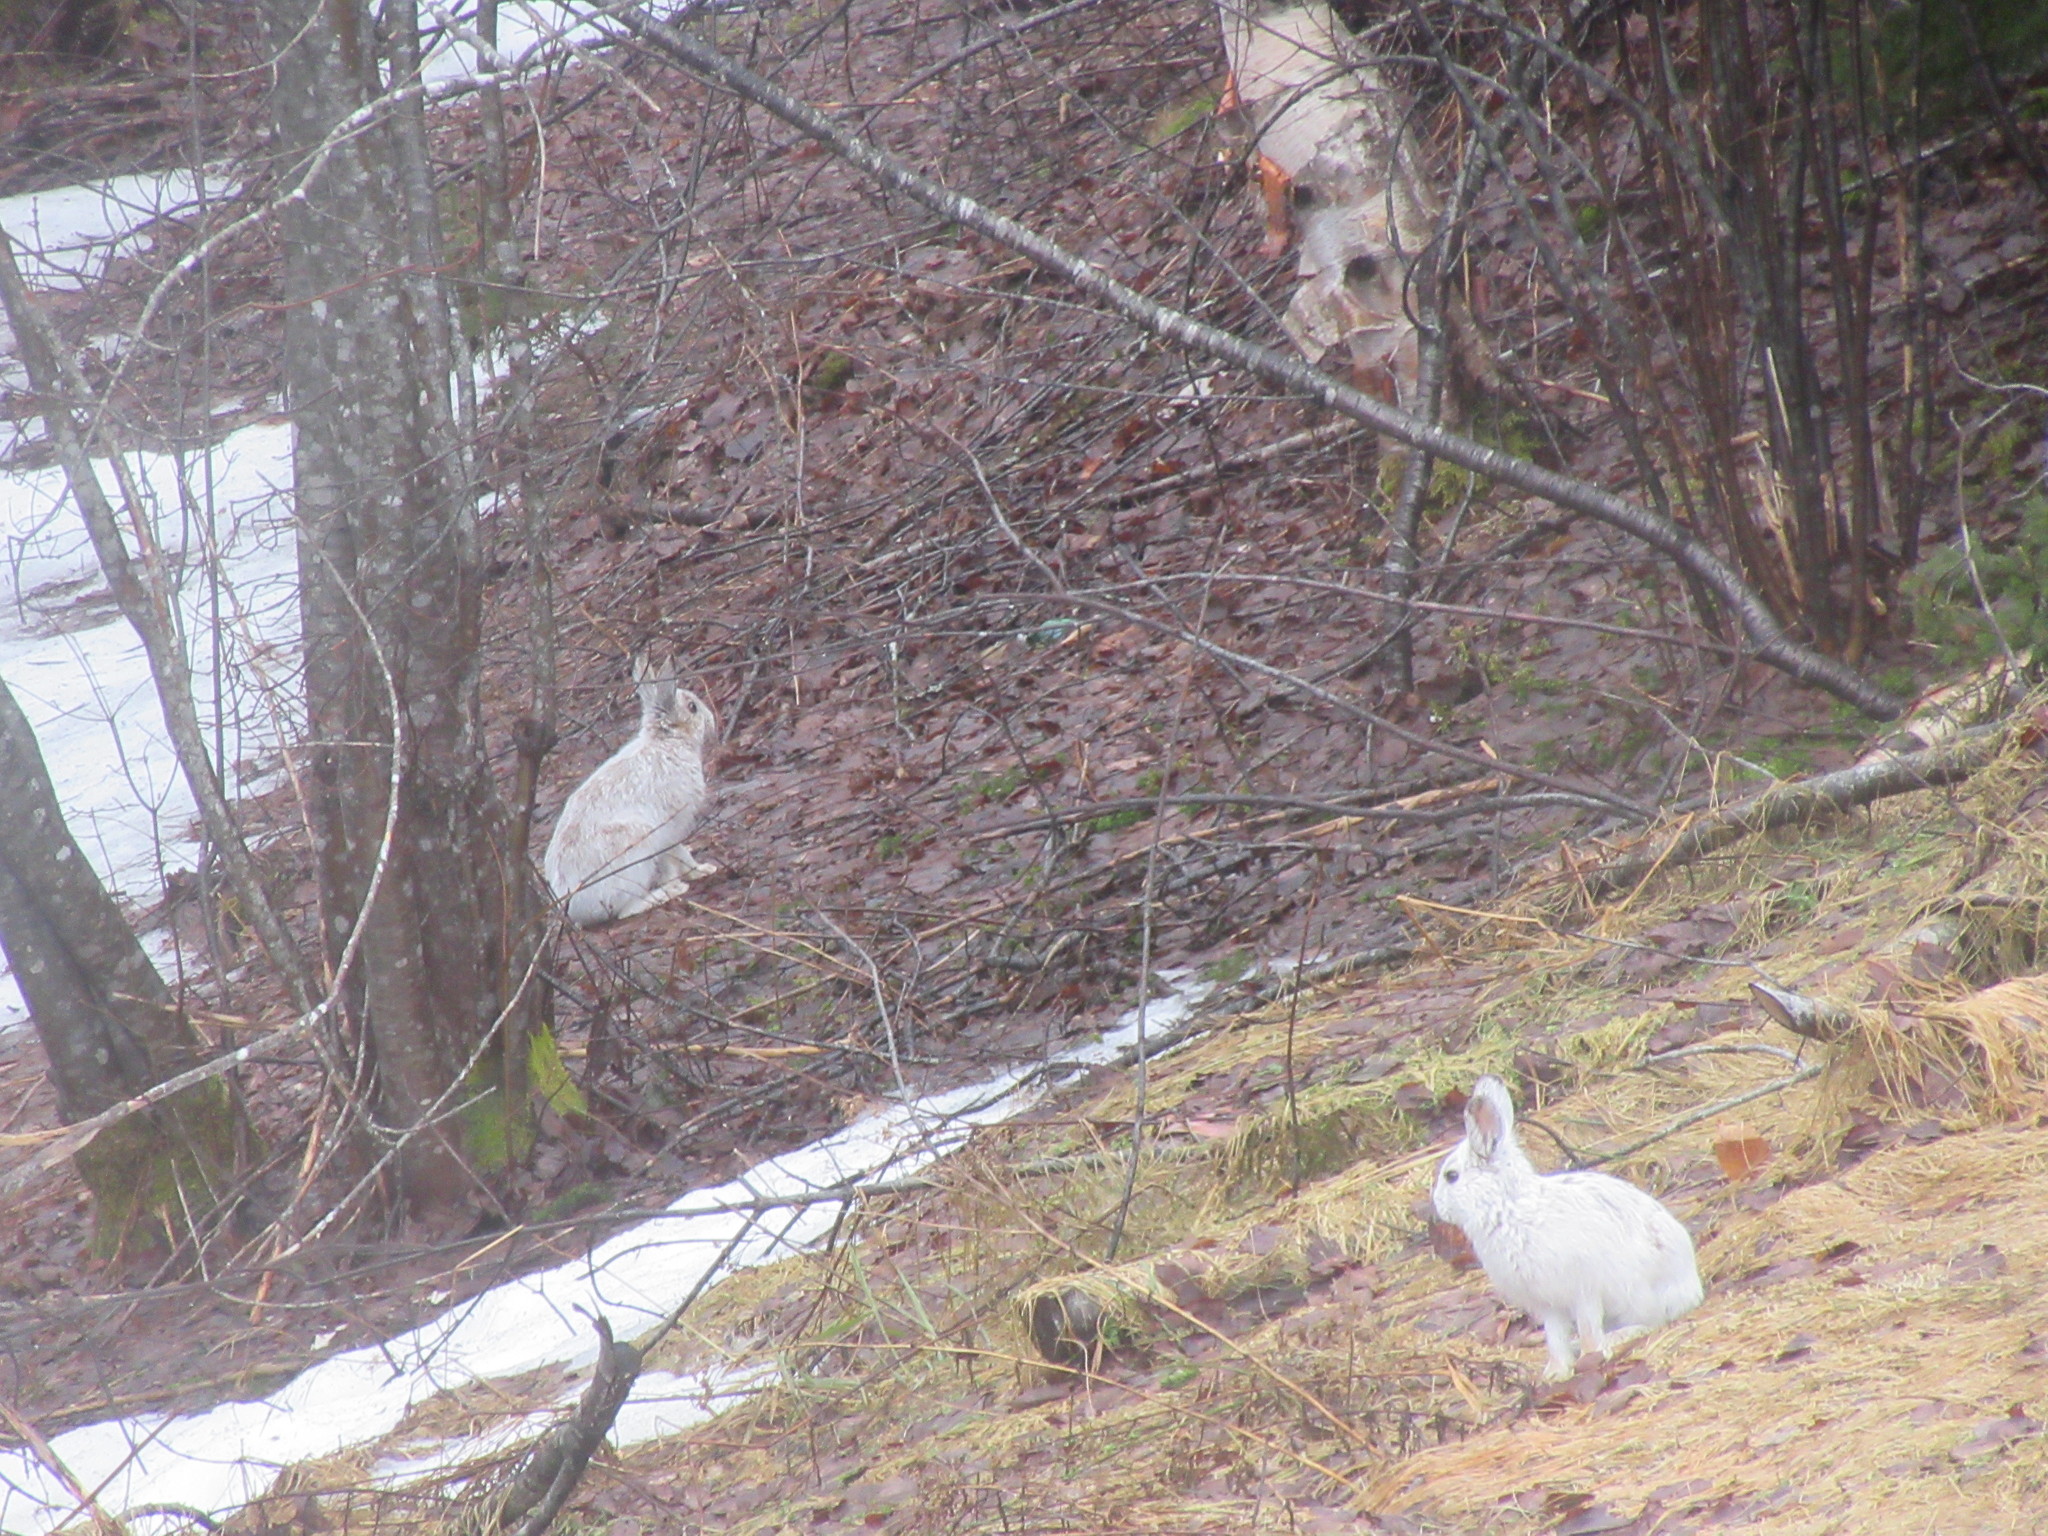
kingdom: Animalia
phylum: Chordata
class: Mammalia
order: Lagomorpha
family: Leporidae
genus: Lepus
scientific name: Lepus americanus
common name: Snowshoe hare
